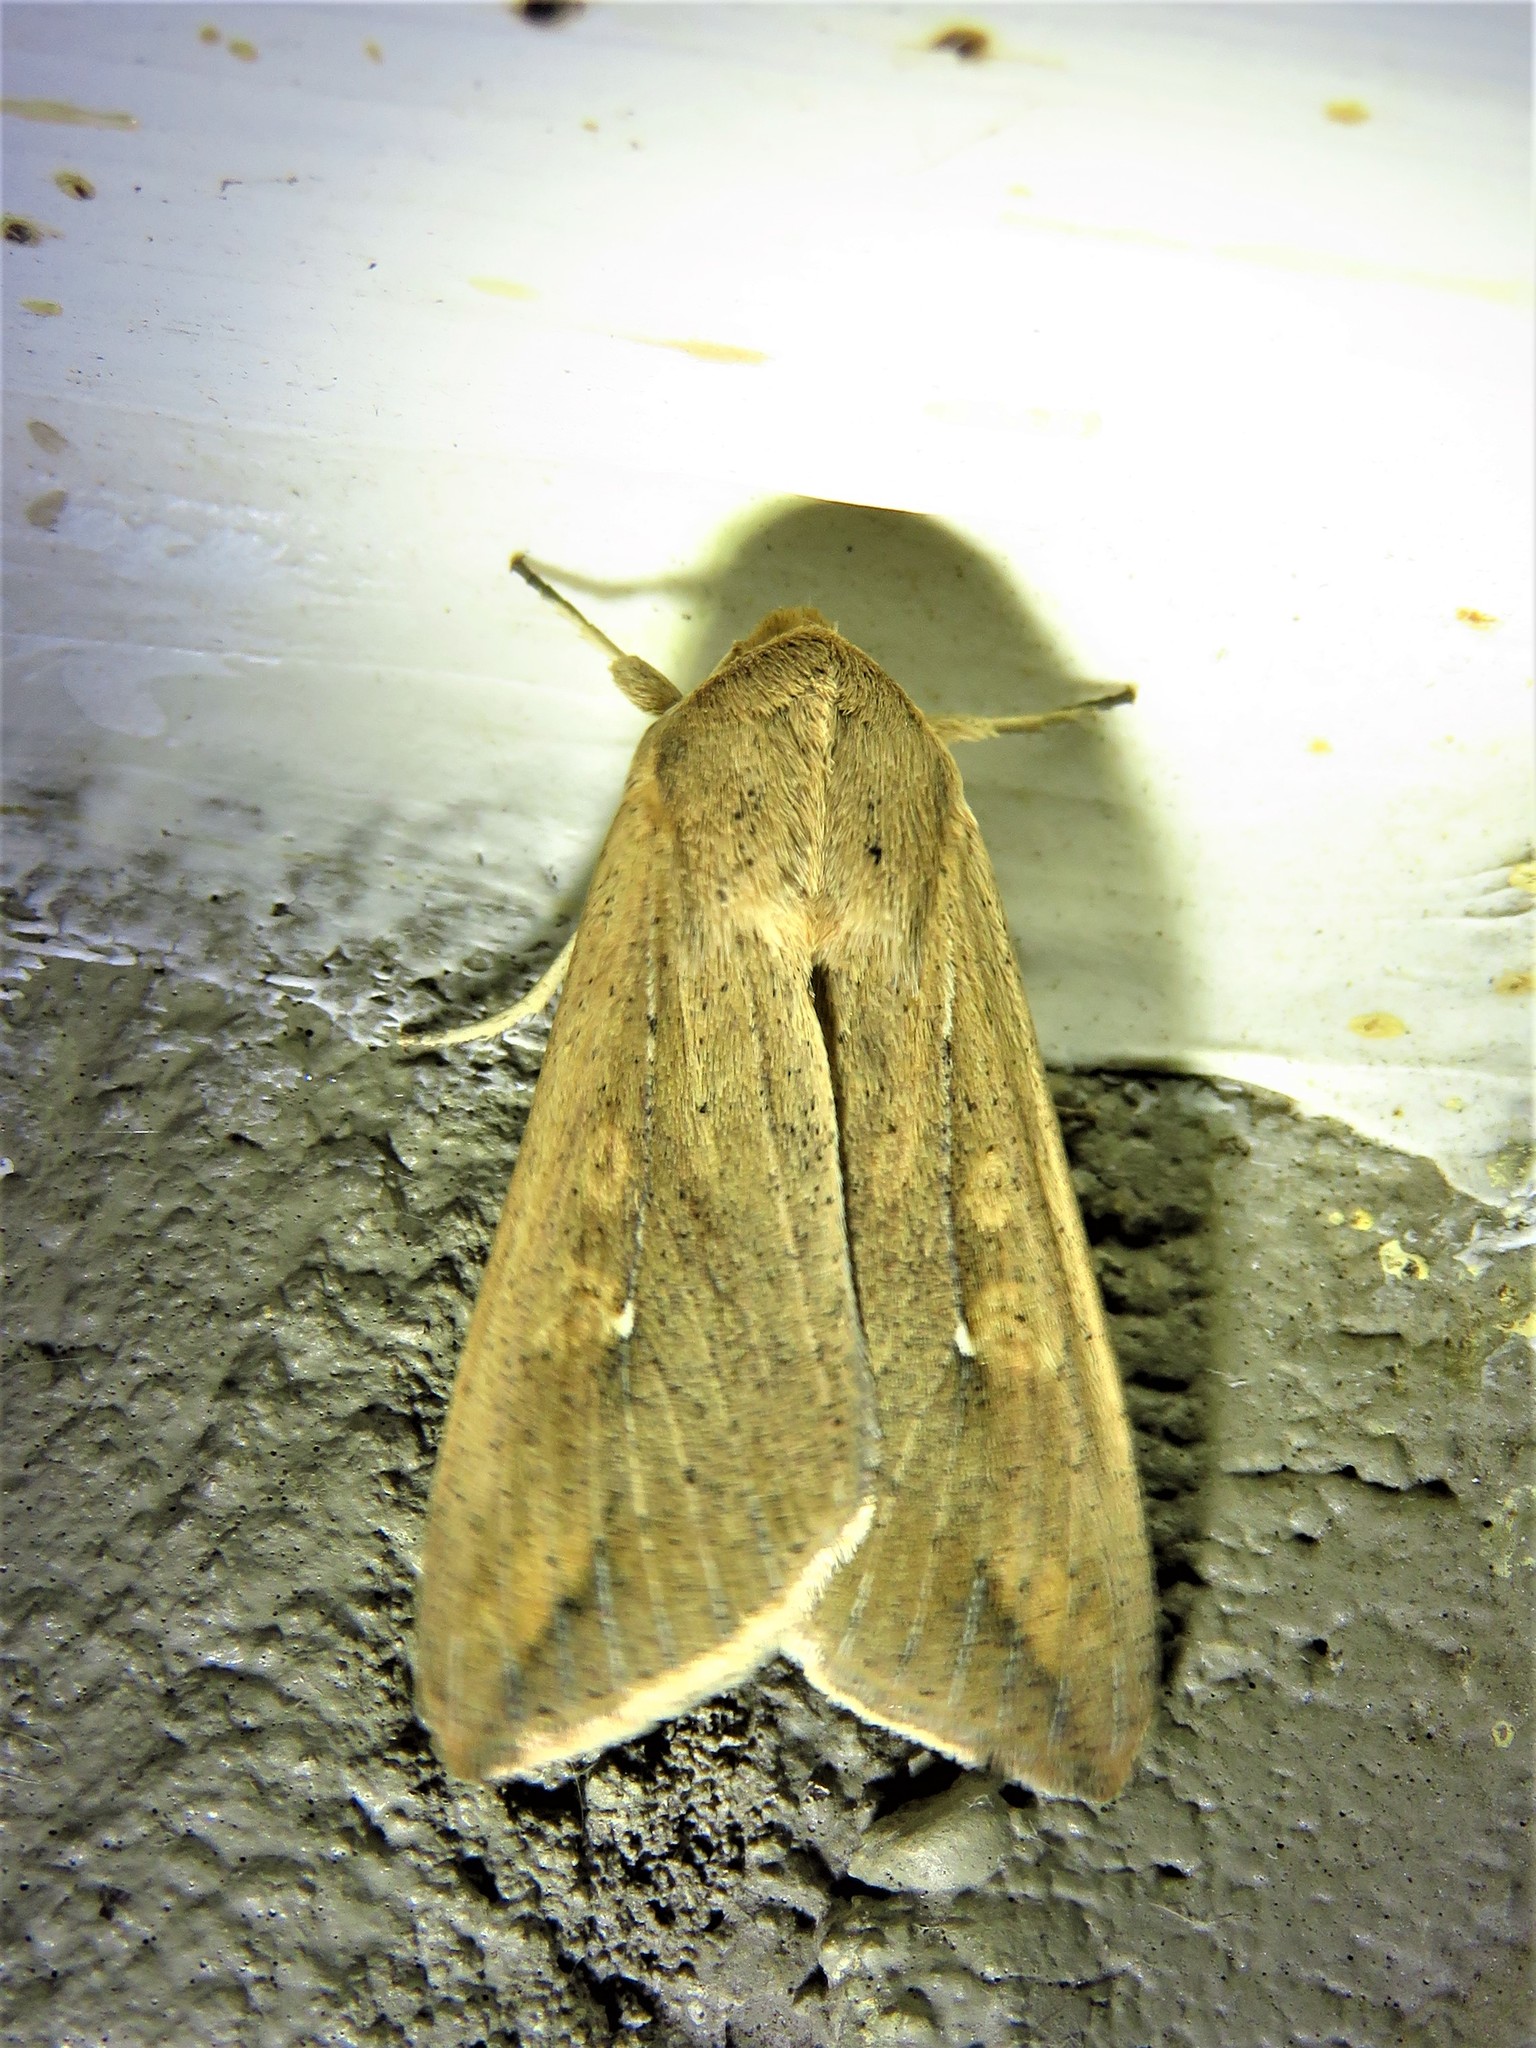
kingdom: Animalia
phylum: Arthropoda
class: Insecta
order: Lepidoptera
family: Noctuidae
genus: Mythimna
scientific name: Mythimna unipuncta
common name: White-speck
